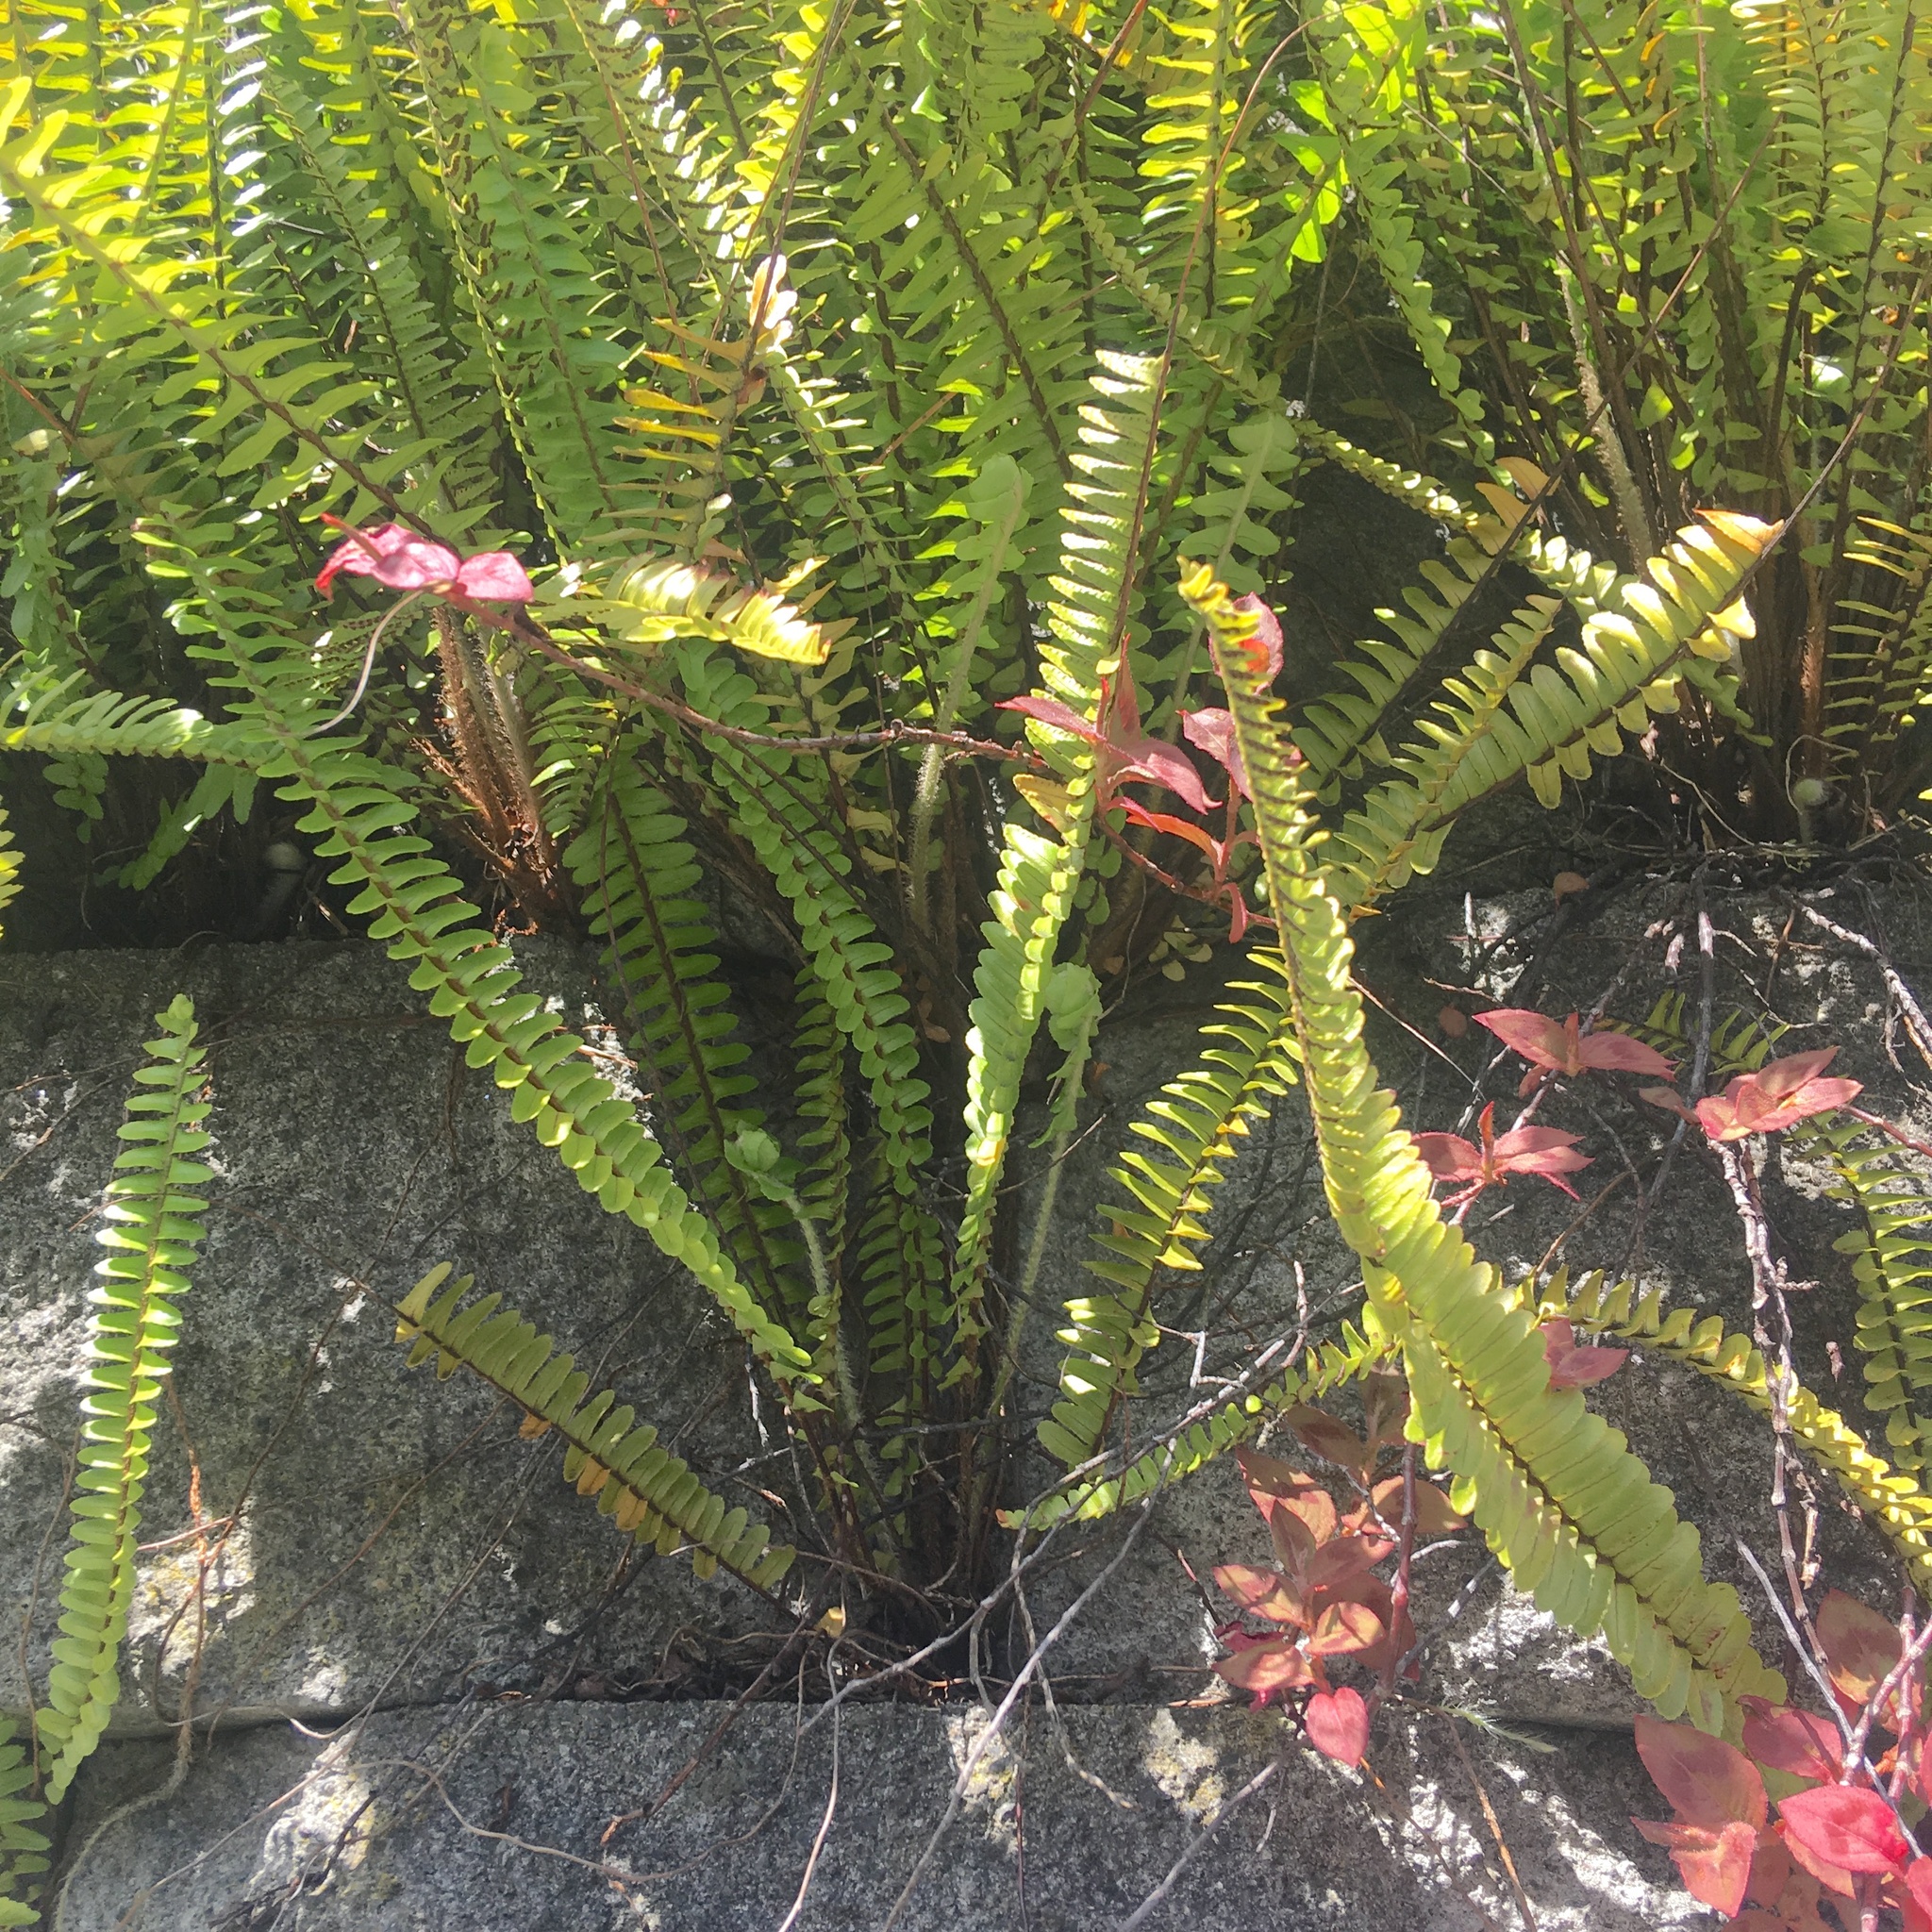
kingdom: Plantae
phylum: Tracheophyta
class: Polypodiopsida
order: Polypodiales
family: Nephrolepidaceae
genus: Nephrolepis
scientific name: Nephrolepis cordifolia
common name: Narrow swordfern
